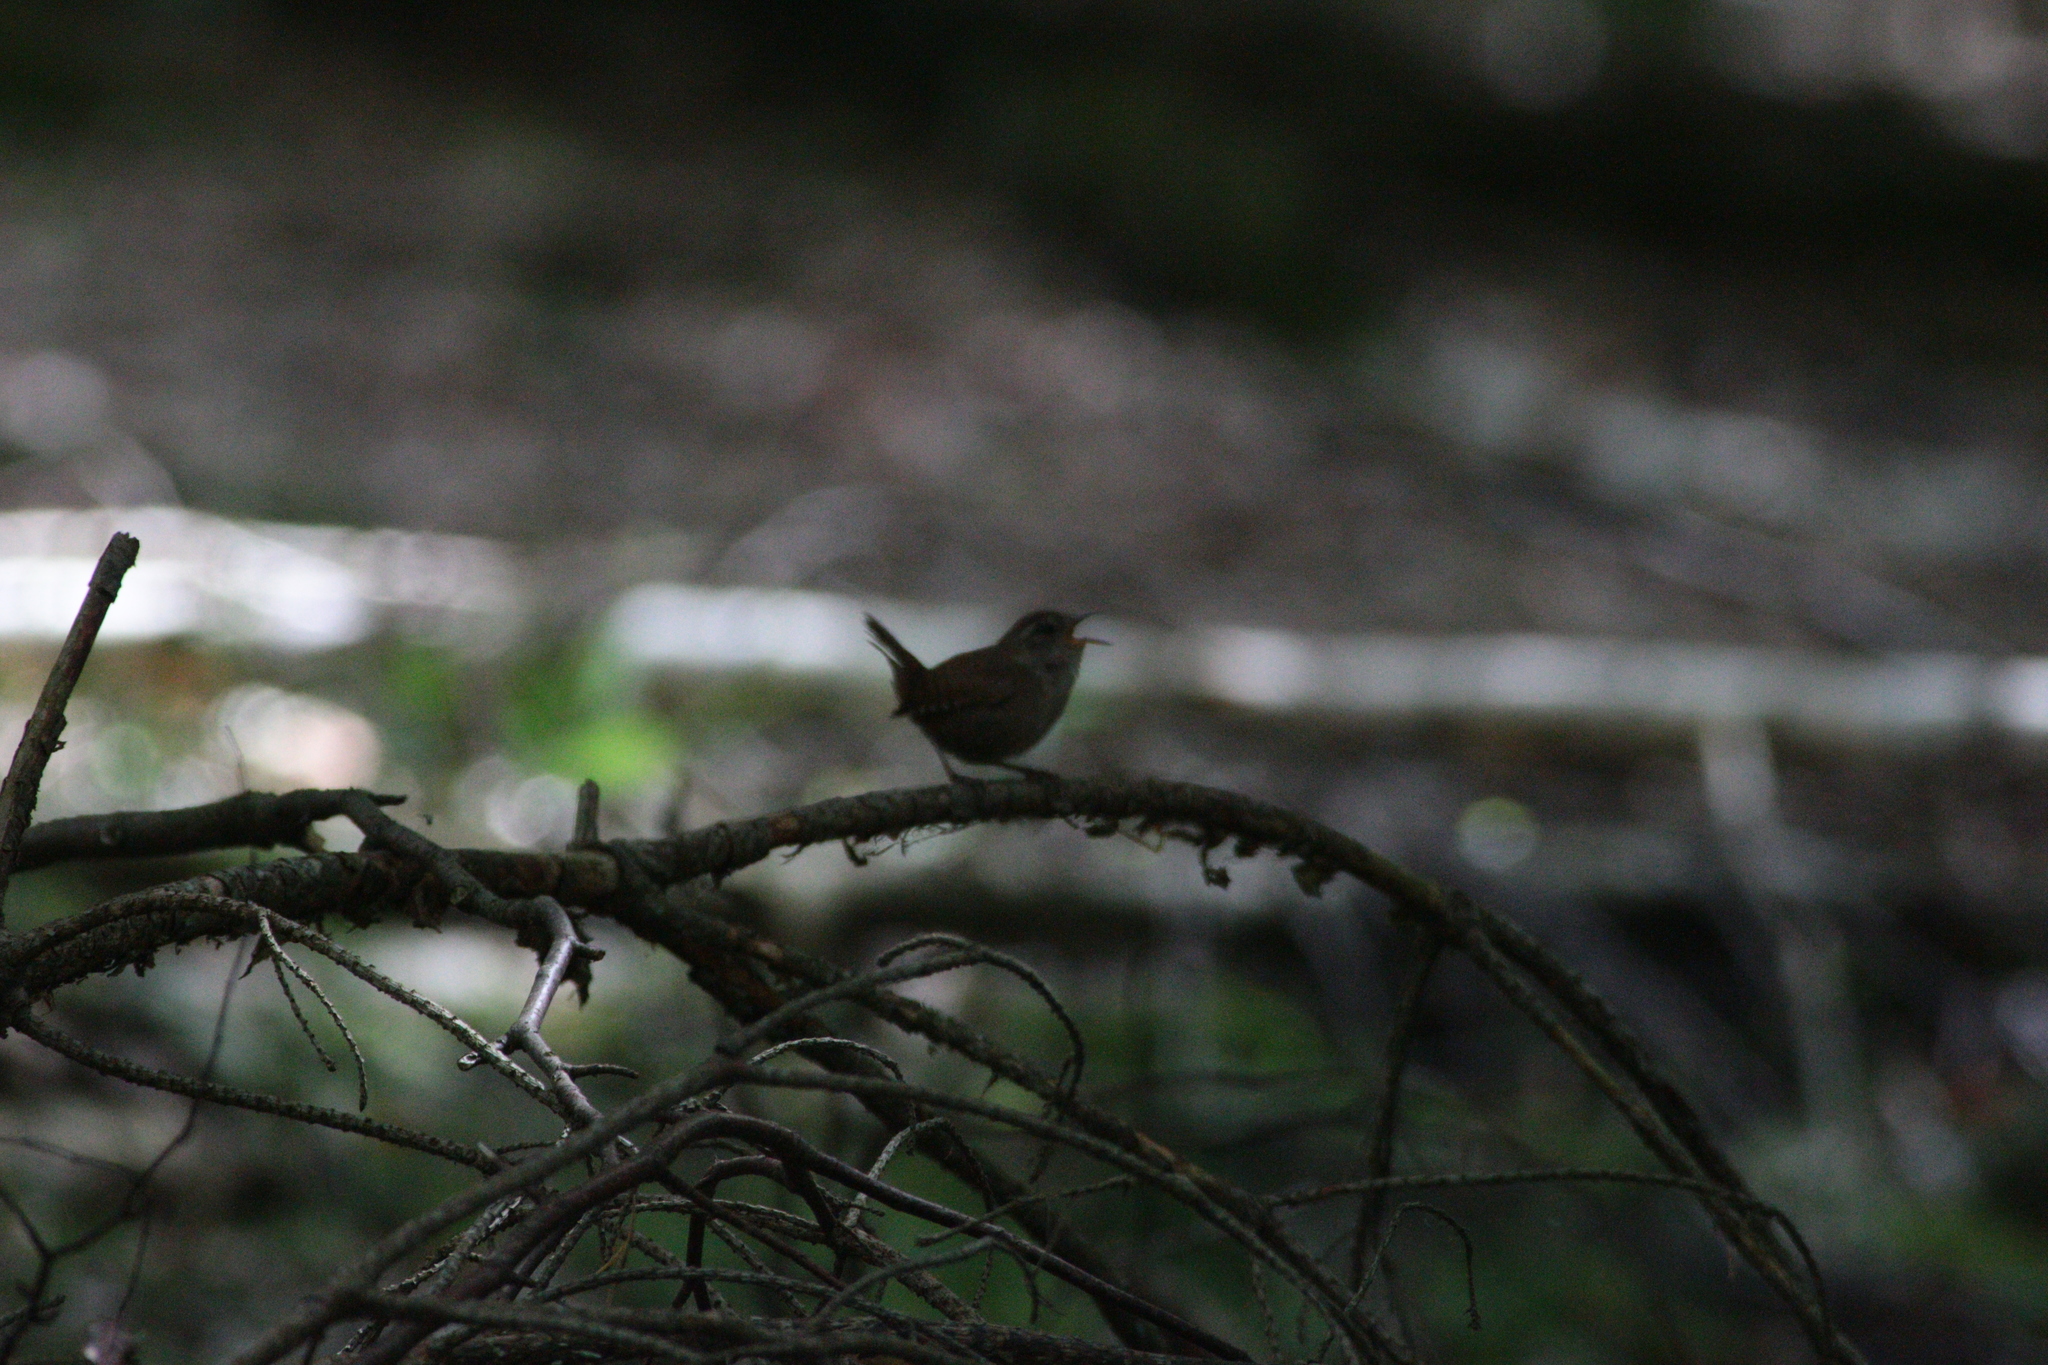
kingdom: Animalia
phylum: Chordata
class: Aves
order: Passeriformes
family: Troglodytidae
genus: Troglodytes
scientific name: Troglodytes troglodytes
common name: Eurasian wren
